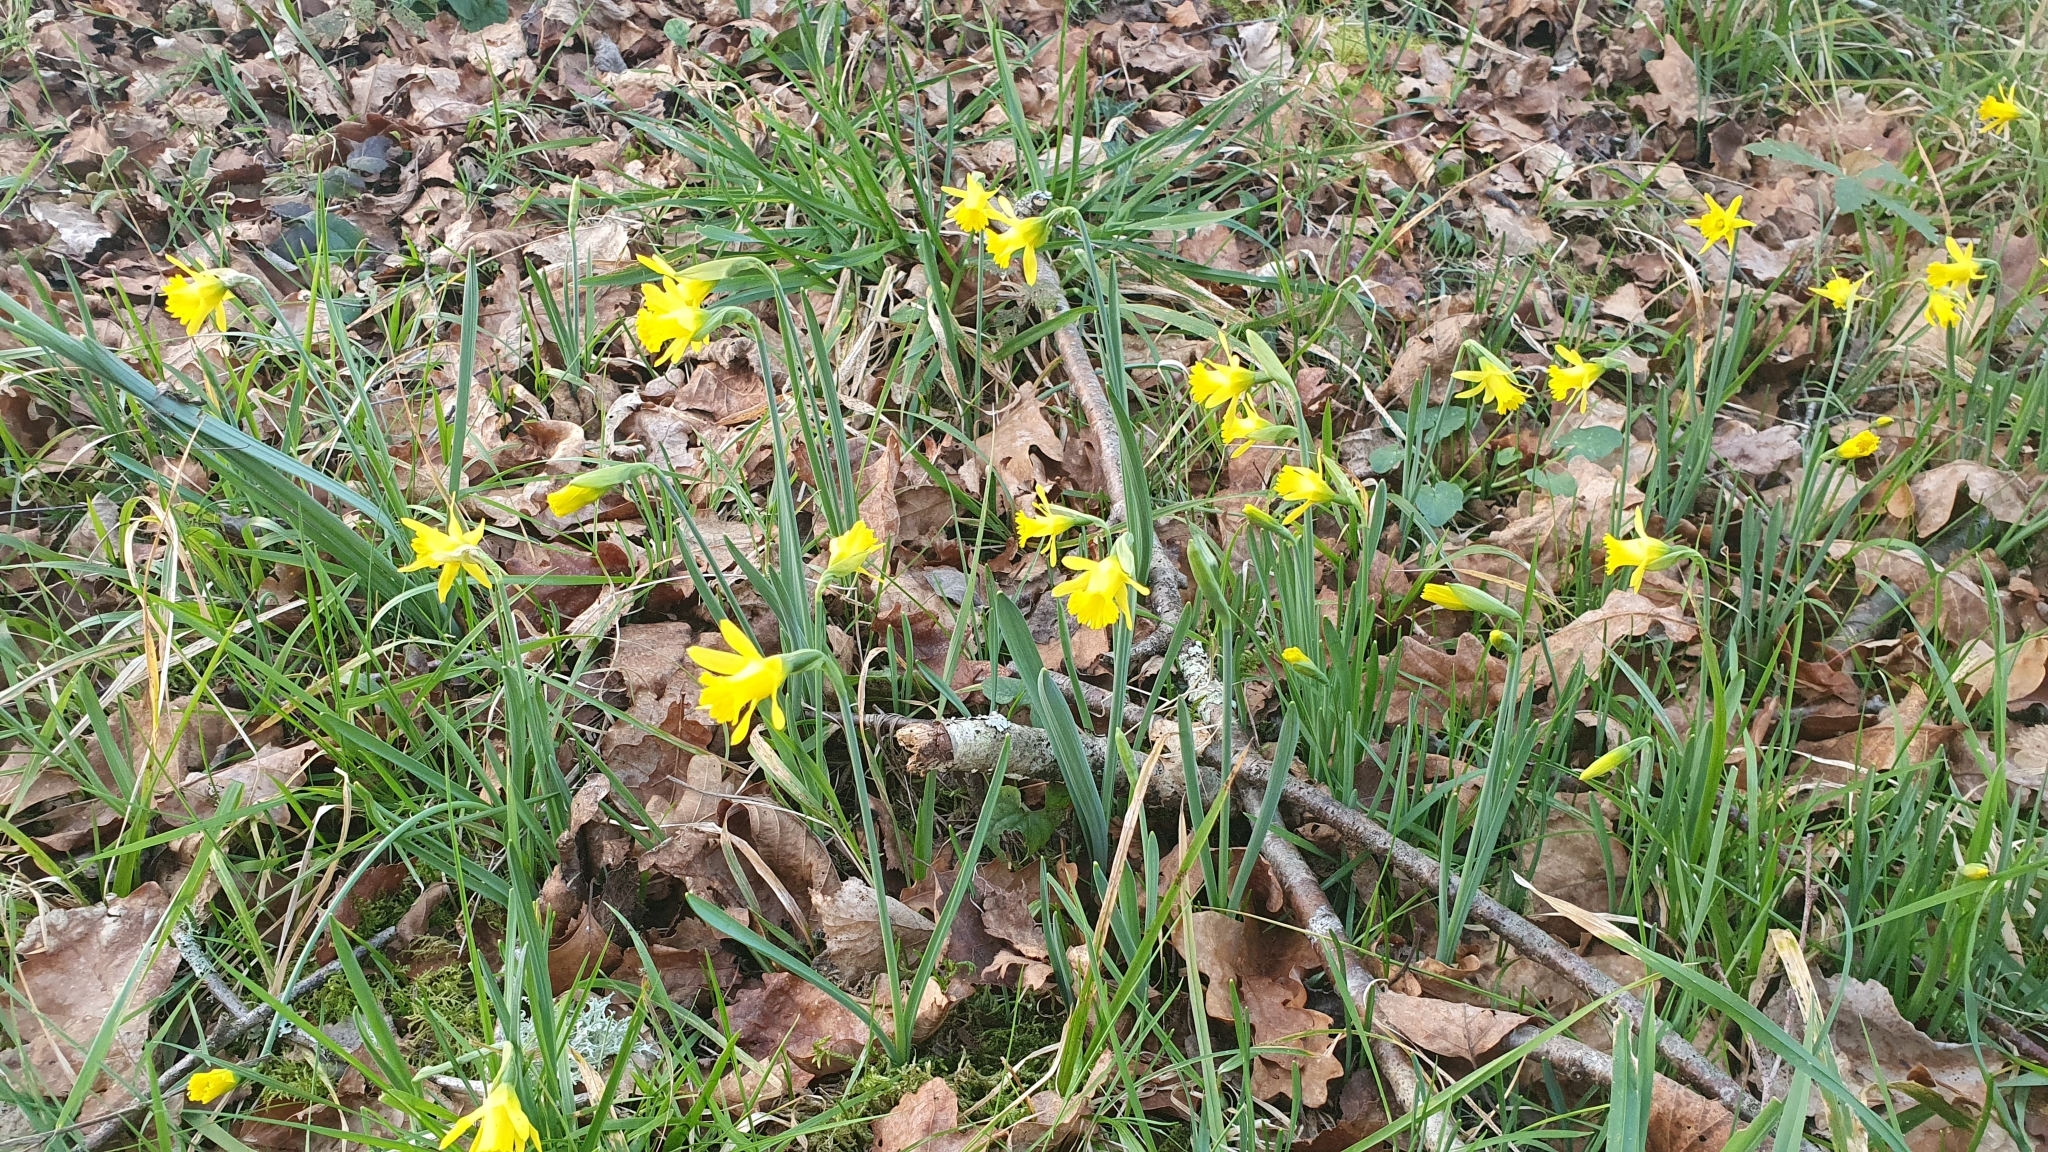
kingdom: Plantae
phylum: Tracheophyta
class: Liliopsida
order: Asparagales
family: Amaryllidaceae
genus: Narcissus
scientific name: Narcissus cuneiflorus
